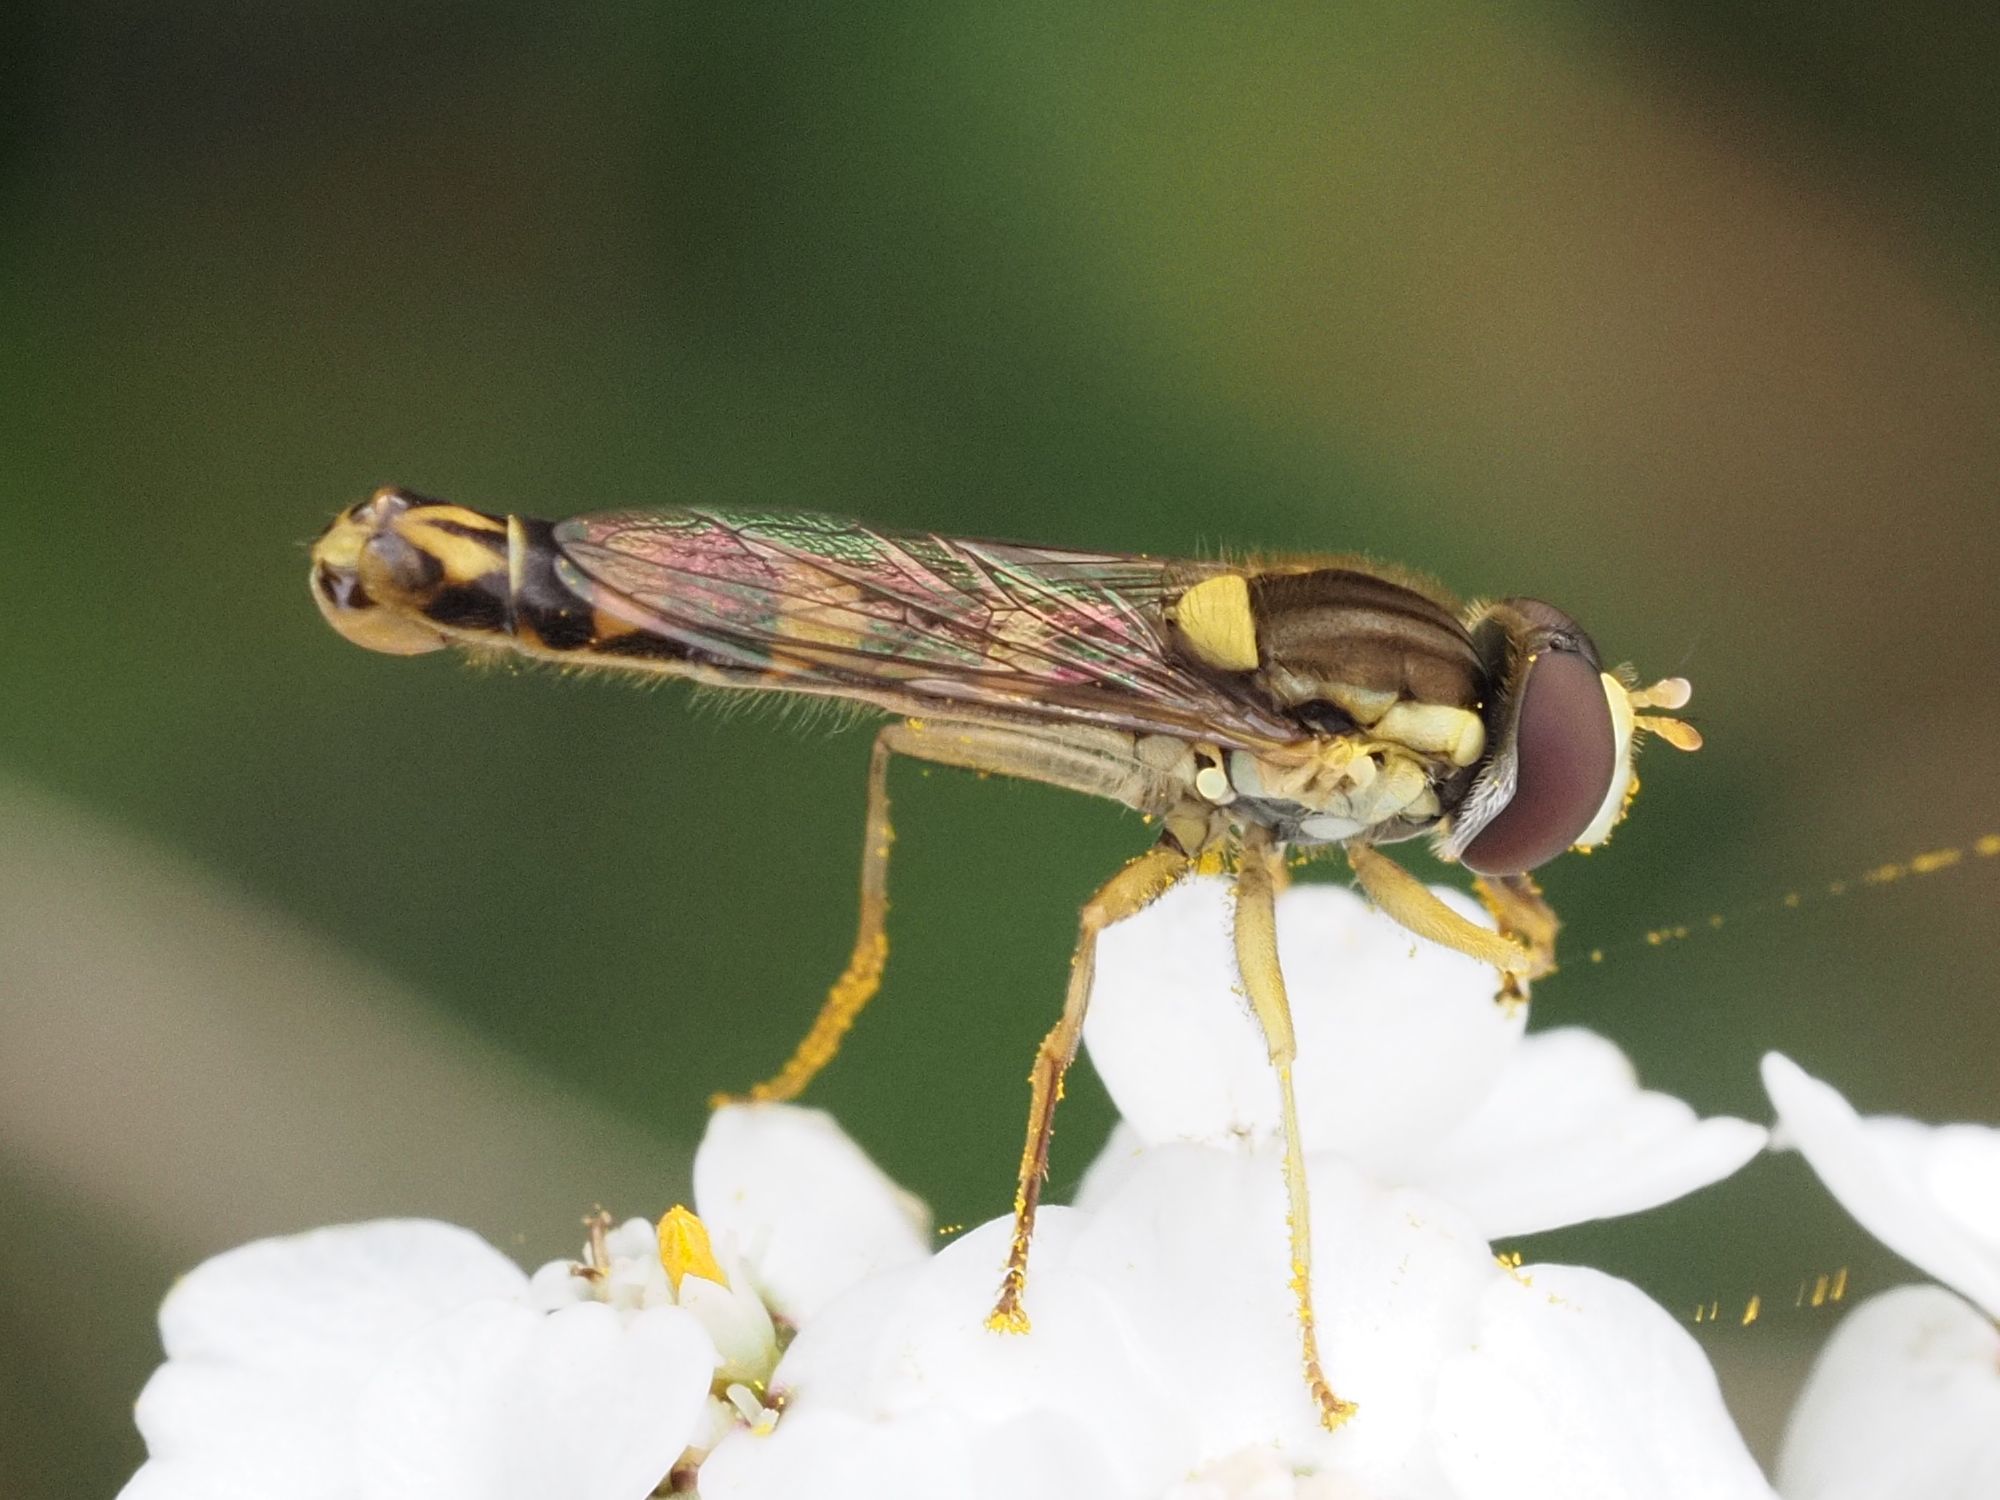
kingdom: Animalia
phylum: Arthropoda
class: Insecta
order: Diptera
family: Syrphidae
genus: Sphaerophoria
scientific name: Sphaerophoria scripta
